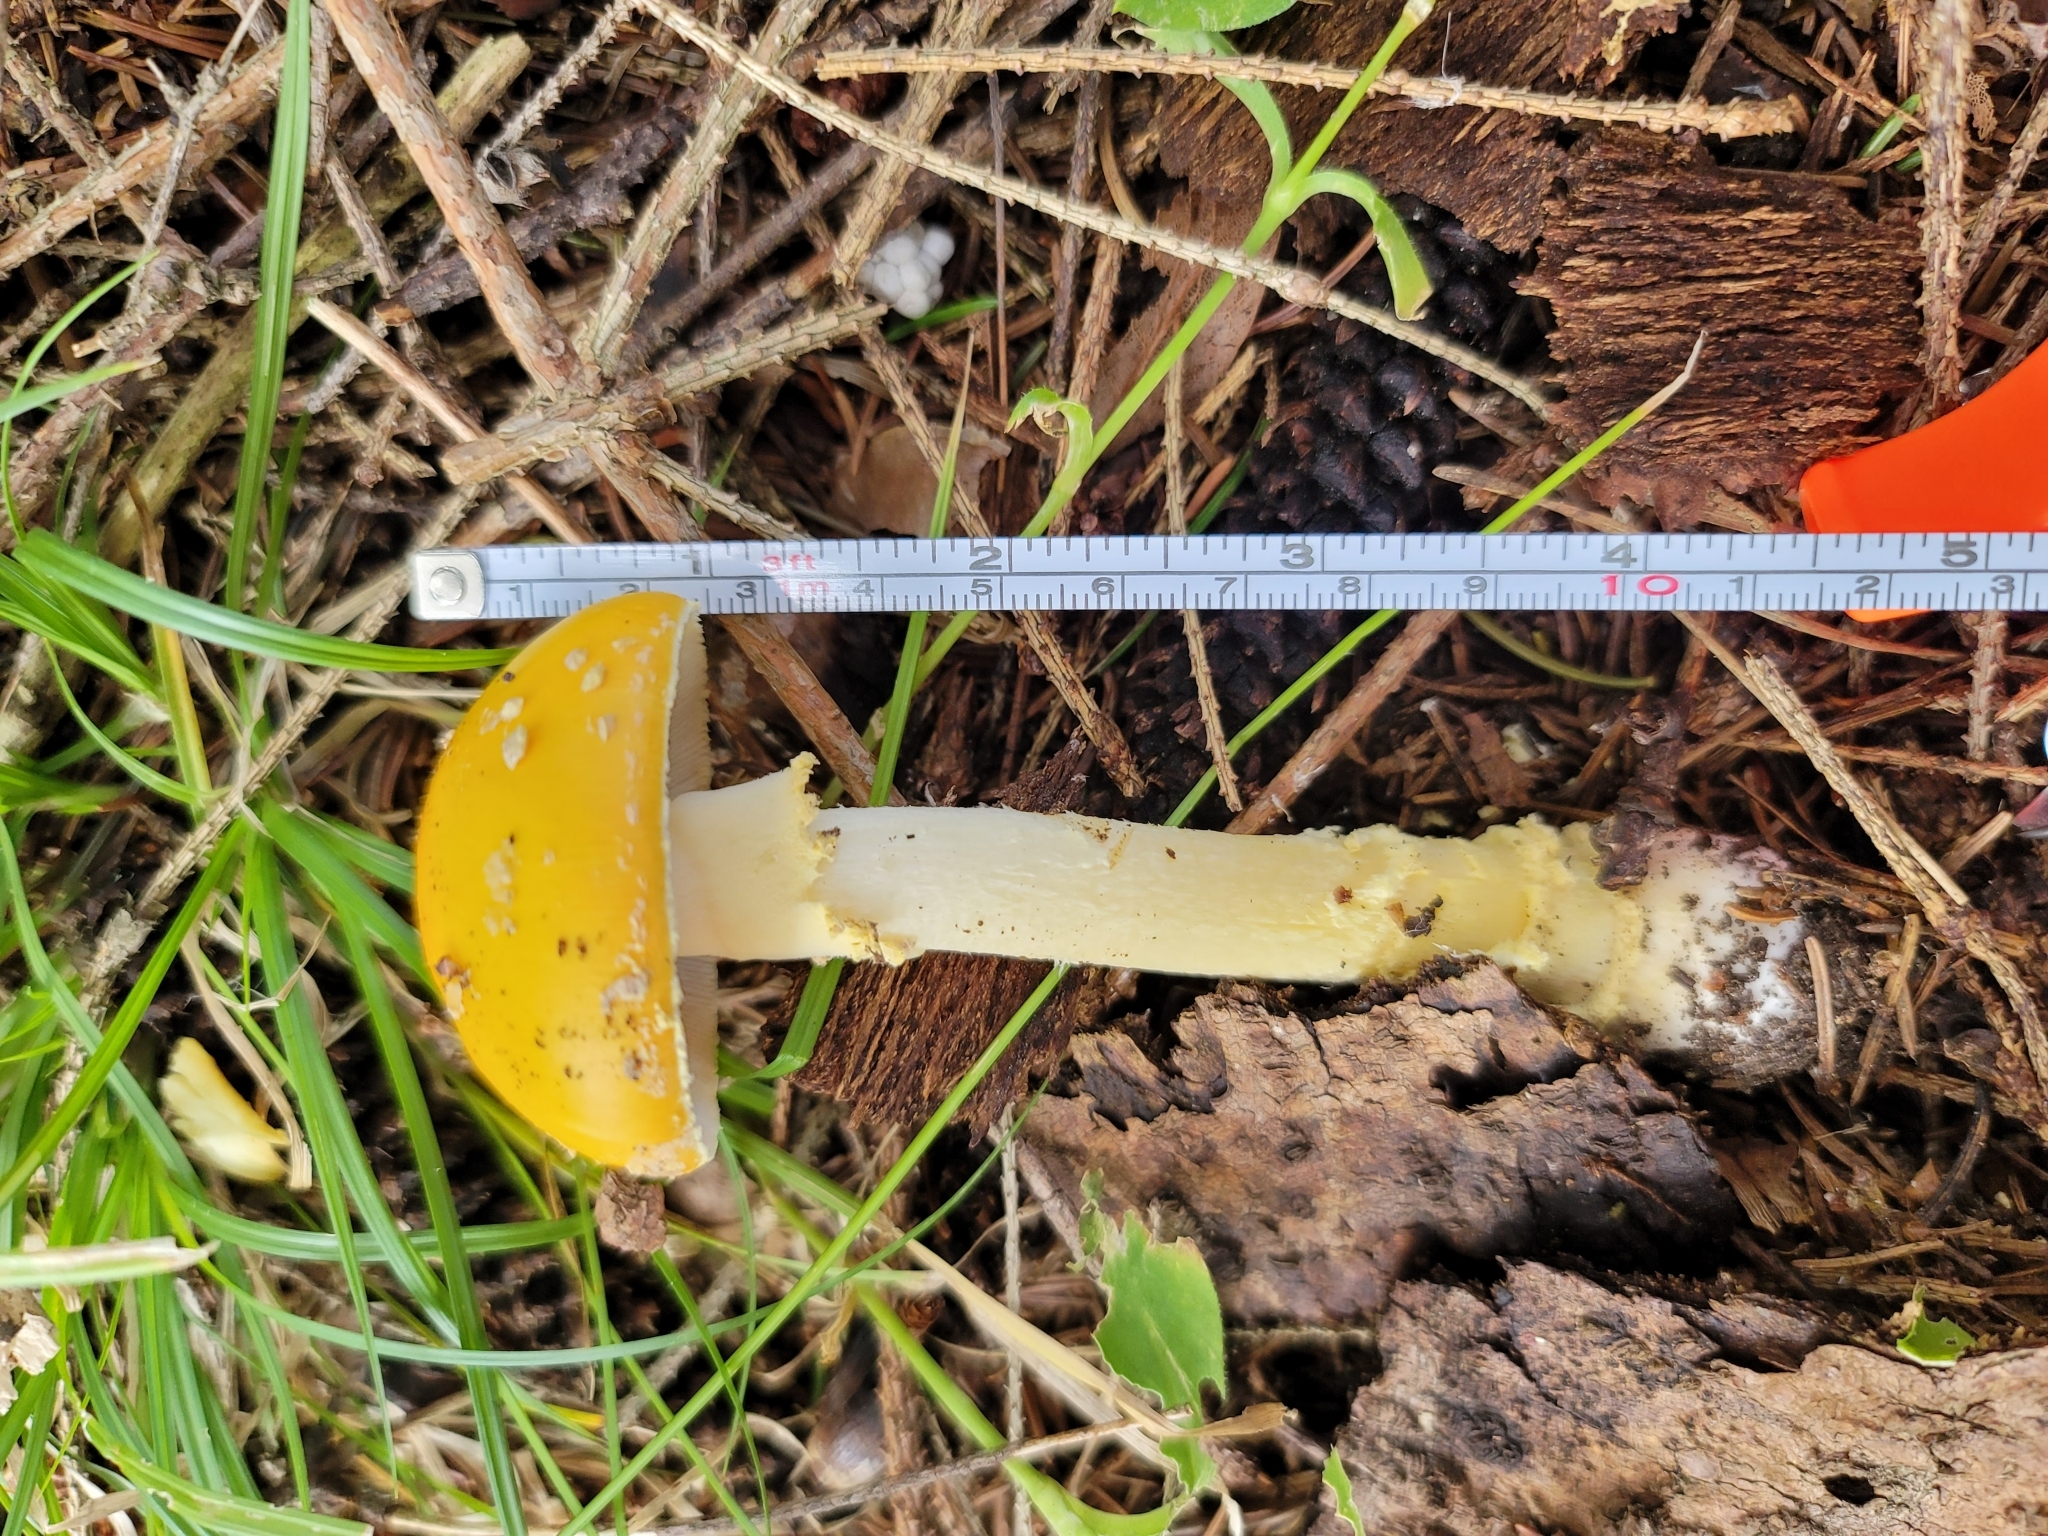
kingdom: Fungi
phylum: Basidiomycota
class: Agaricomycetes
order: Agaricales
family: Amanitaceae
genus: Amanita
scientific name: Amanita muscaria
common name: Fly agaric
